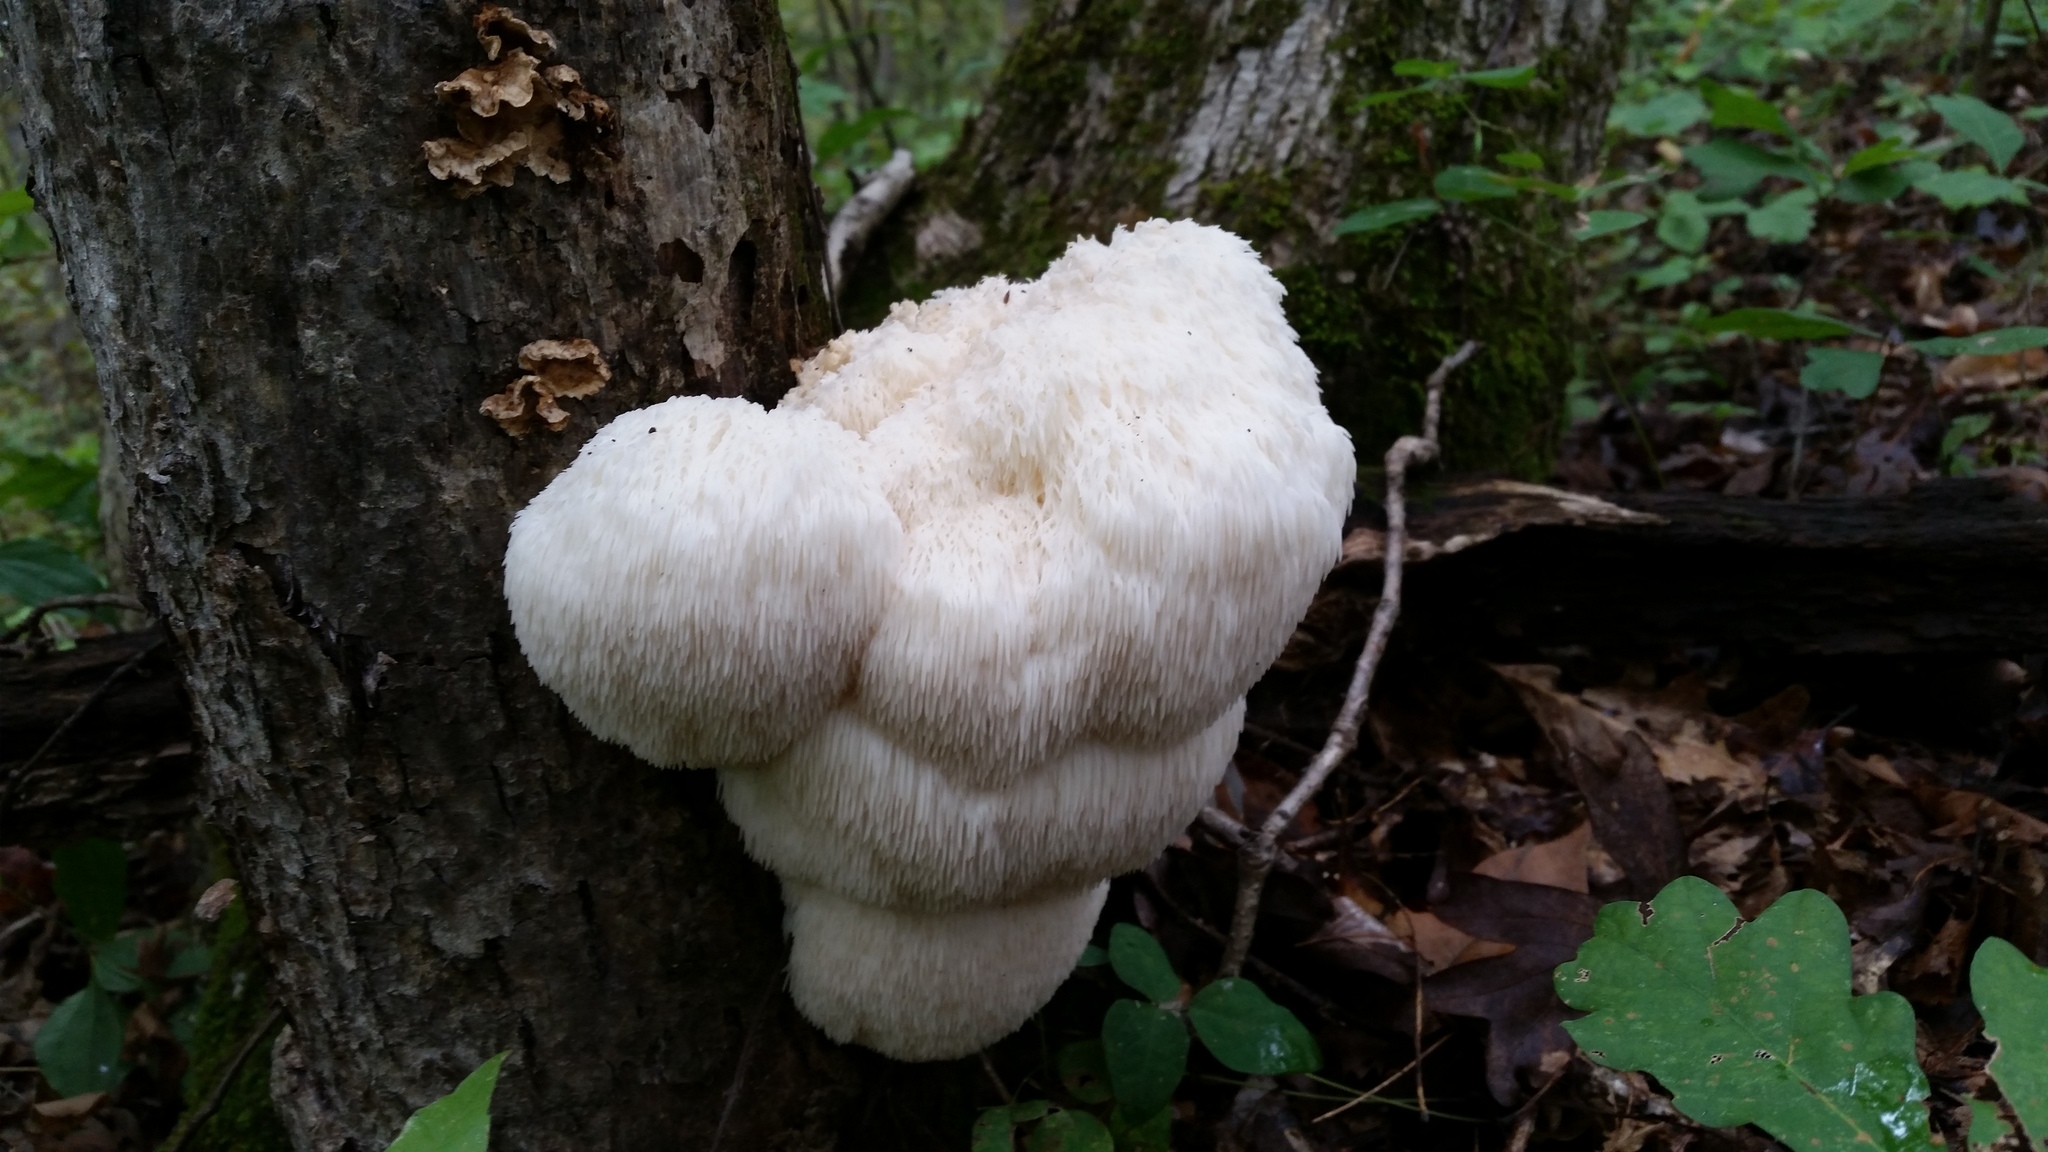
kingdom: Fungi
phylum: Basidiomycota
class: Agaricomycetes
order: Russulales
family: Hericiaceae
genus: Hericium
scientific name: Hericium erinaceus
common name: Bearded tooth
